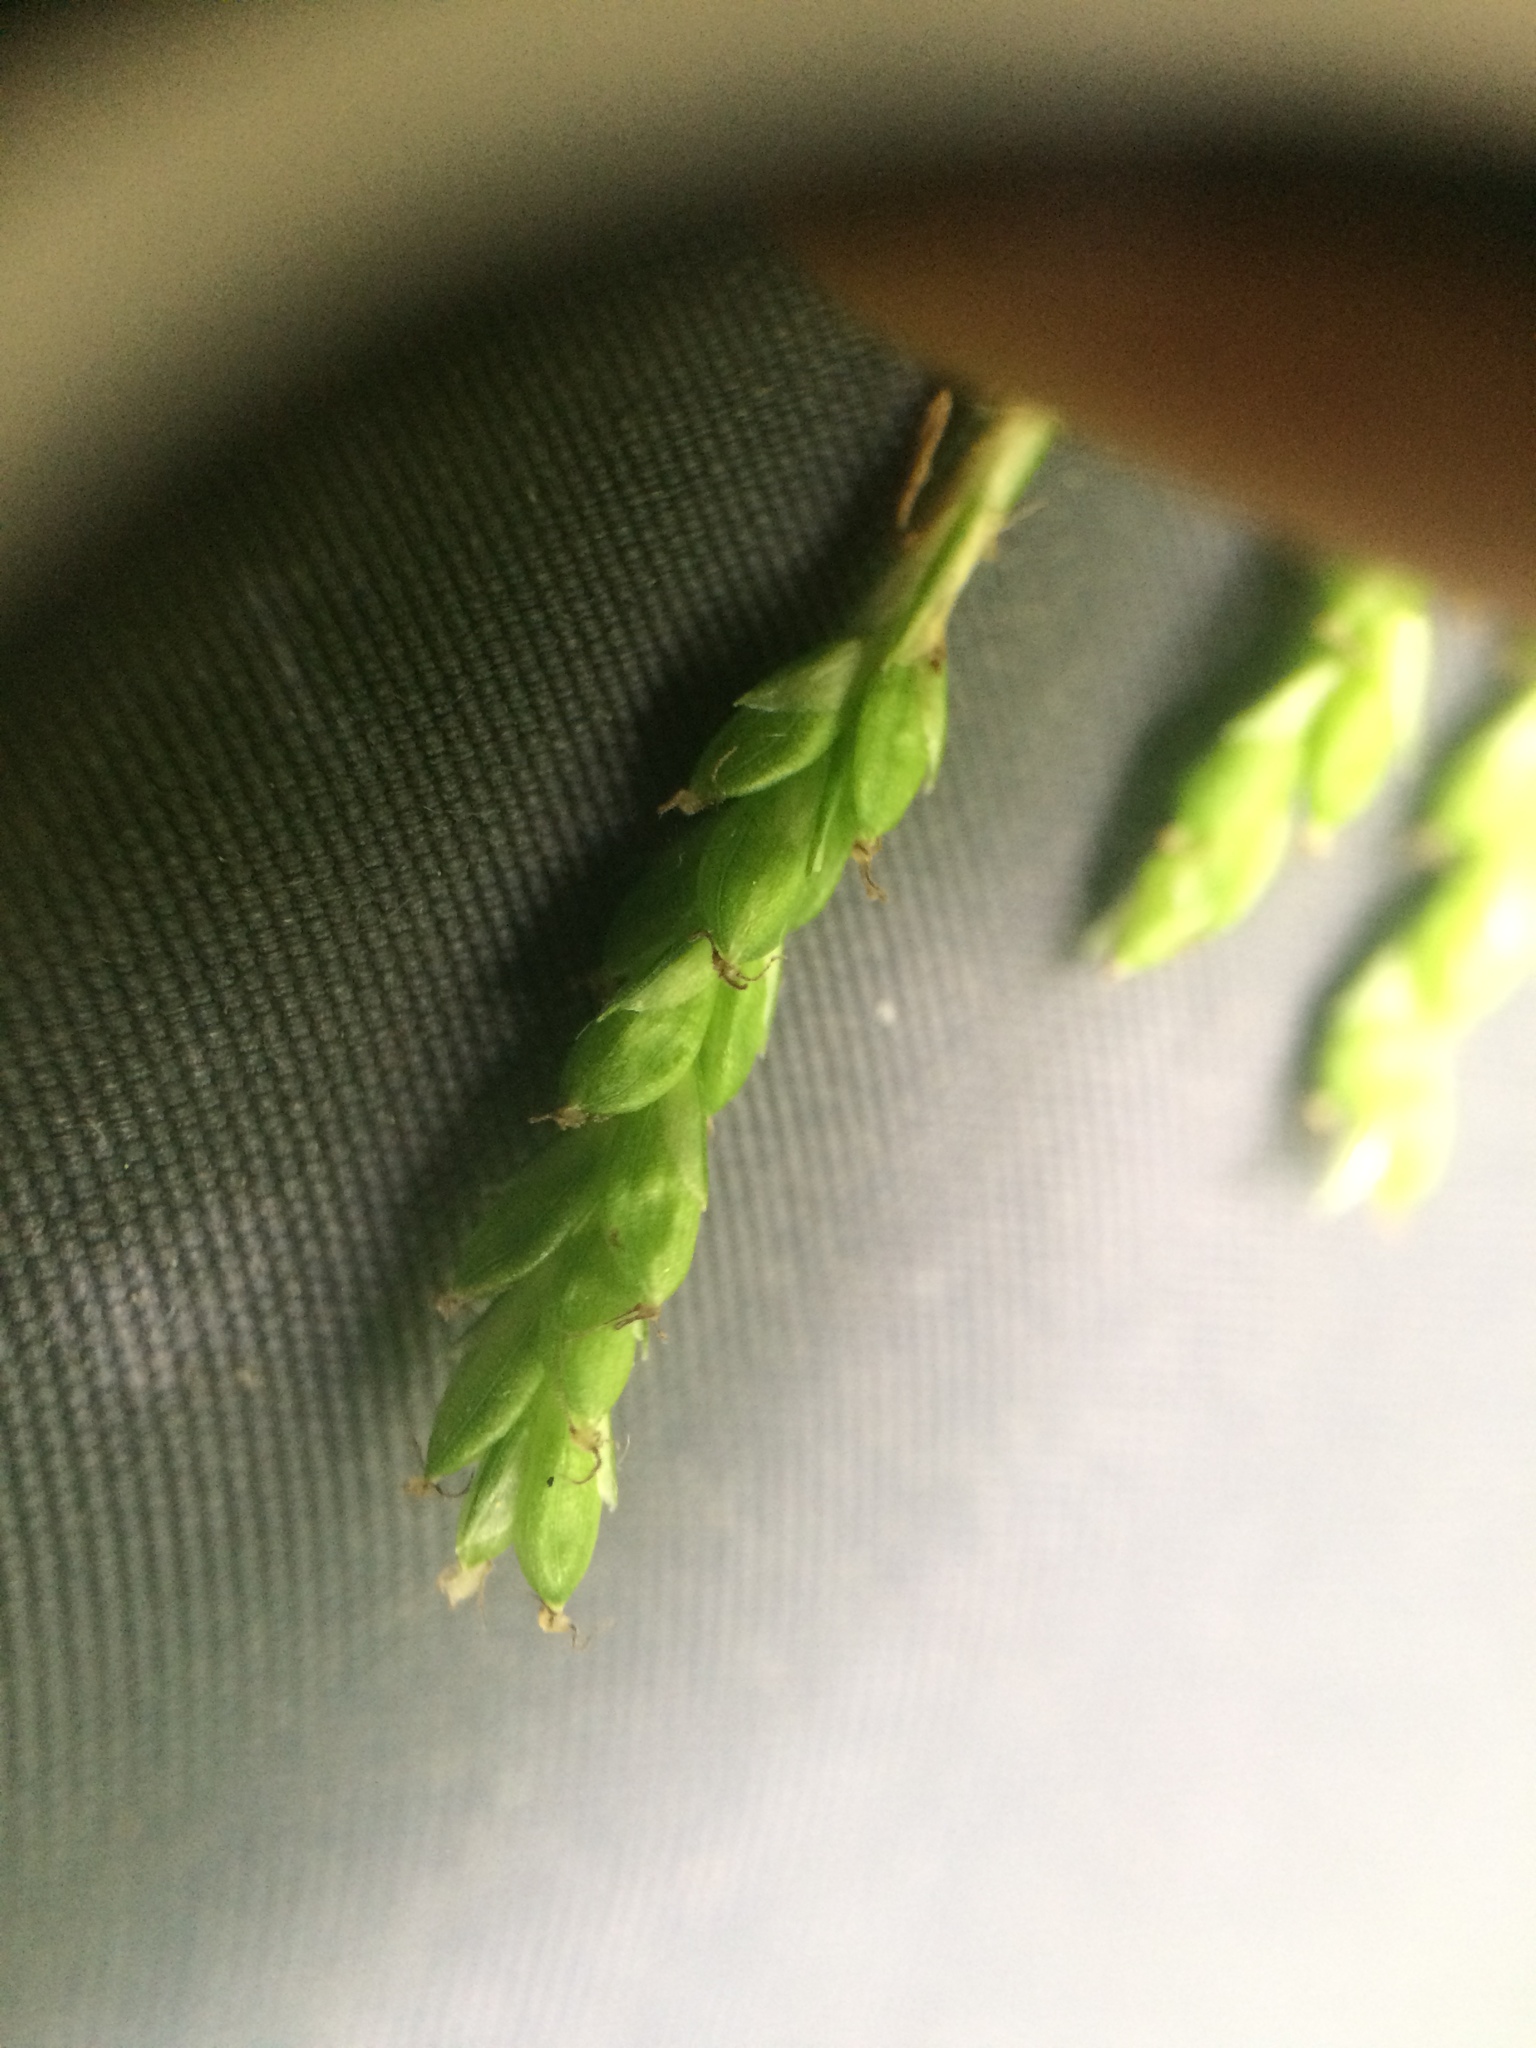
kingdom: Plantae
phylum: Tracheophyta
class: Liliopsida
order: Poales
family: Cyperaceae
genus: Carex
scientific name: Carex gracillima
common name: Graceful sedge
